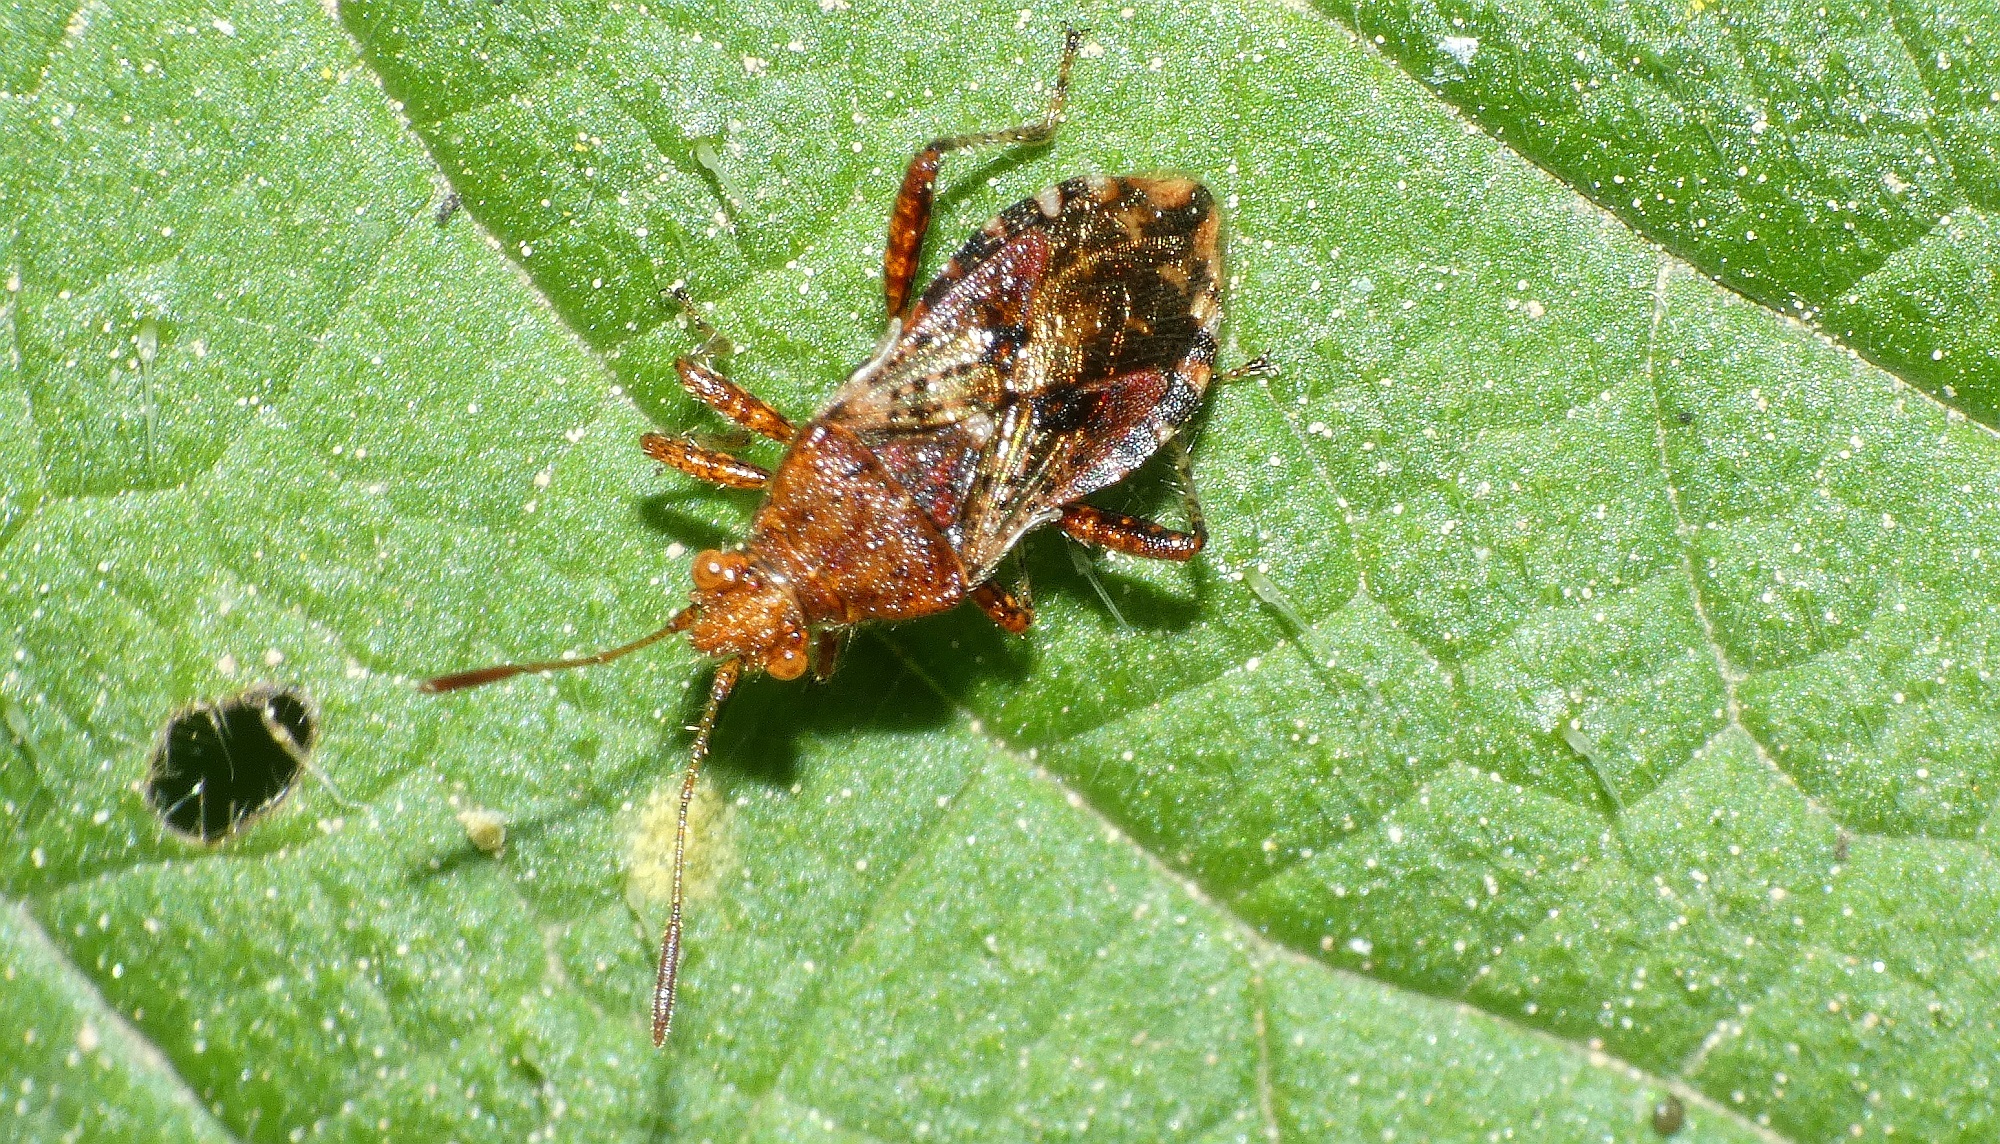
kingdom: Animalia
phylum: Arthropoda
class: Insecta
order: Hemiptera
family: Rhopalidae
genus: Rhopalus
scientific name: Rhopalus subrufus
